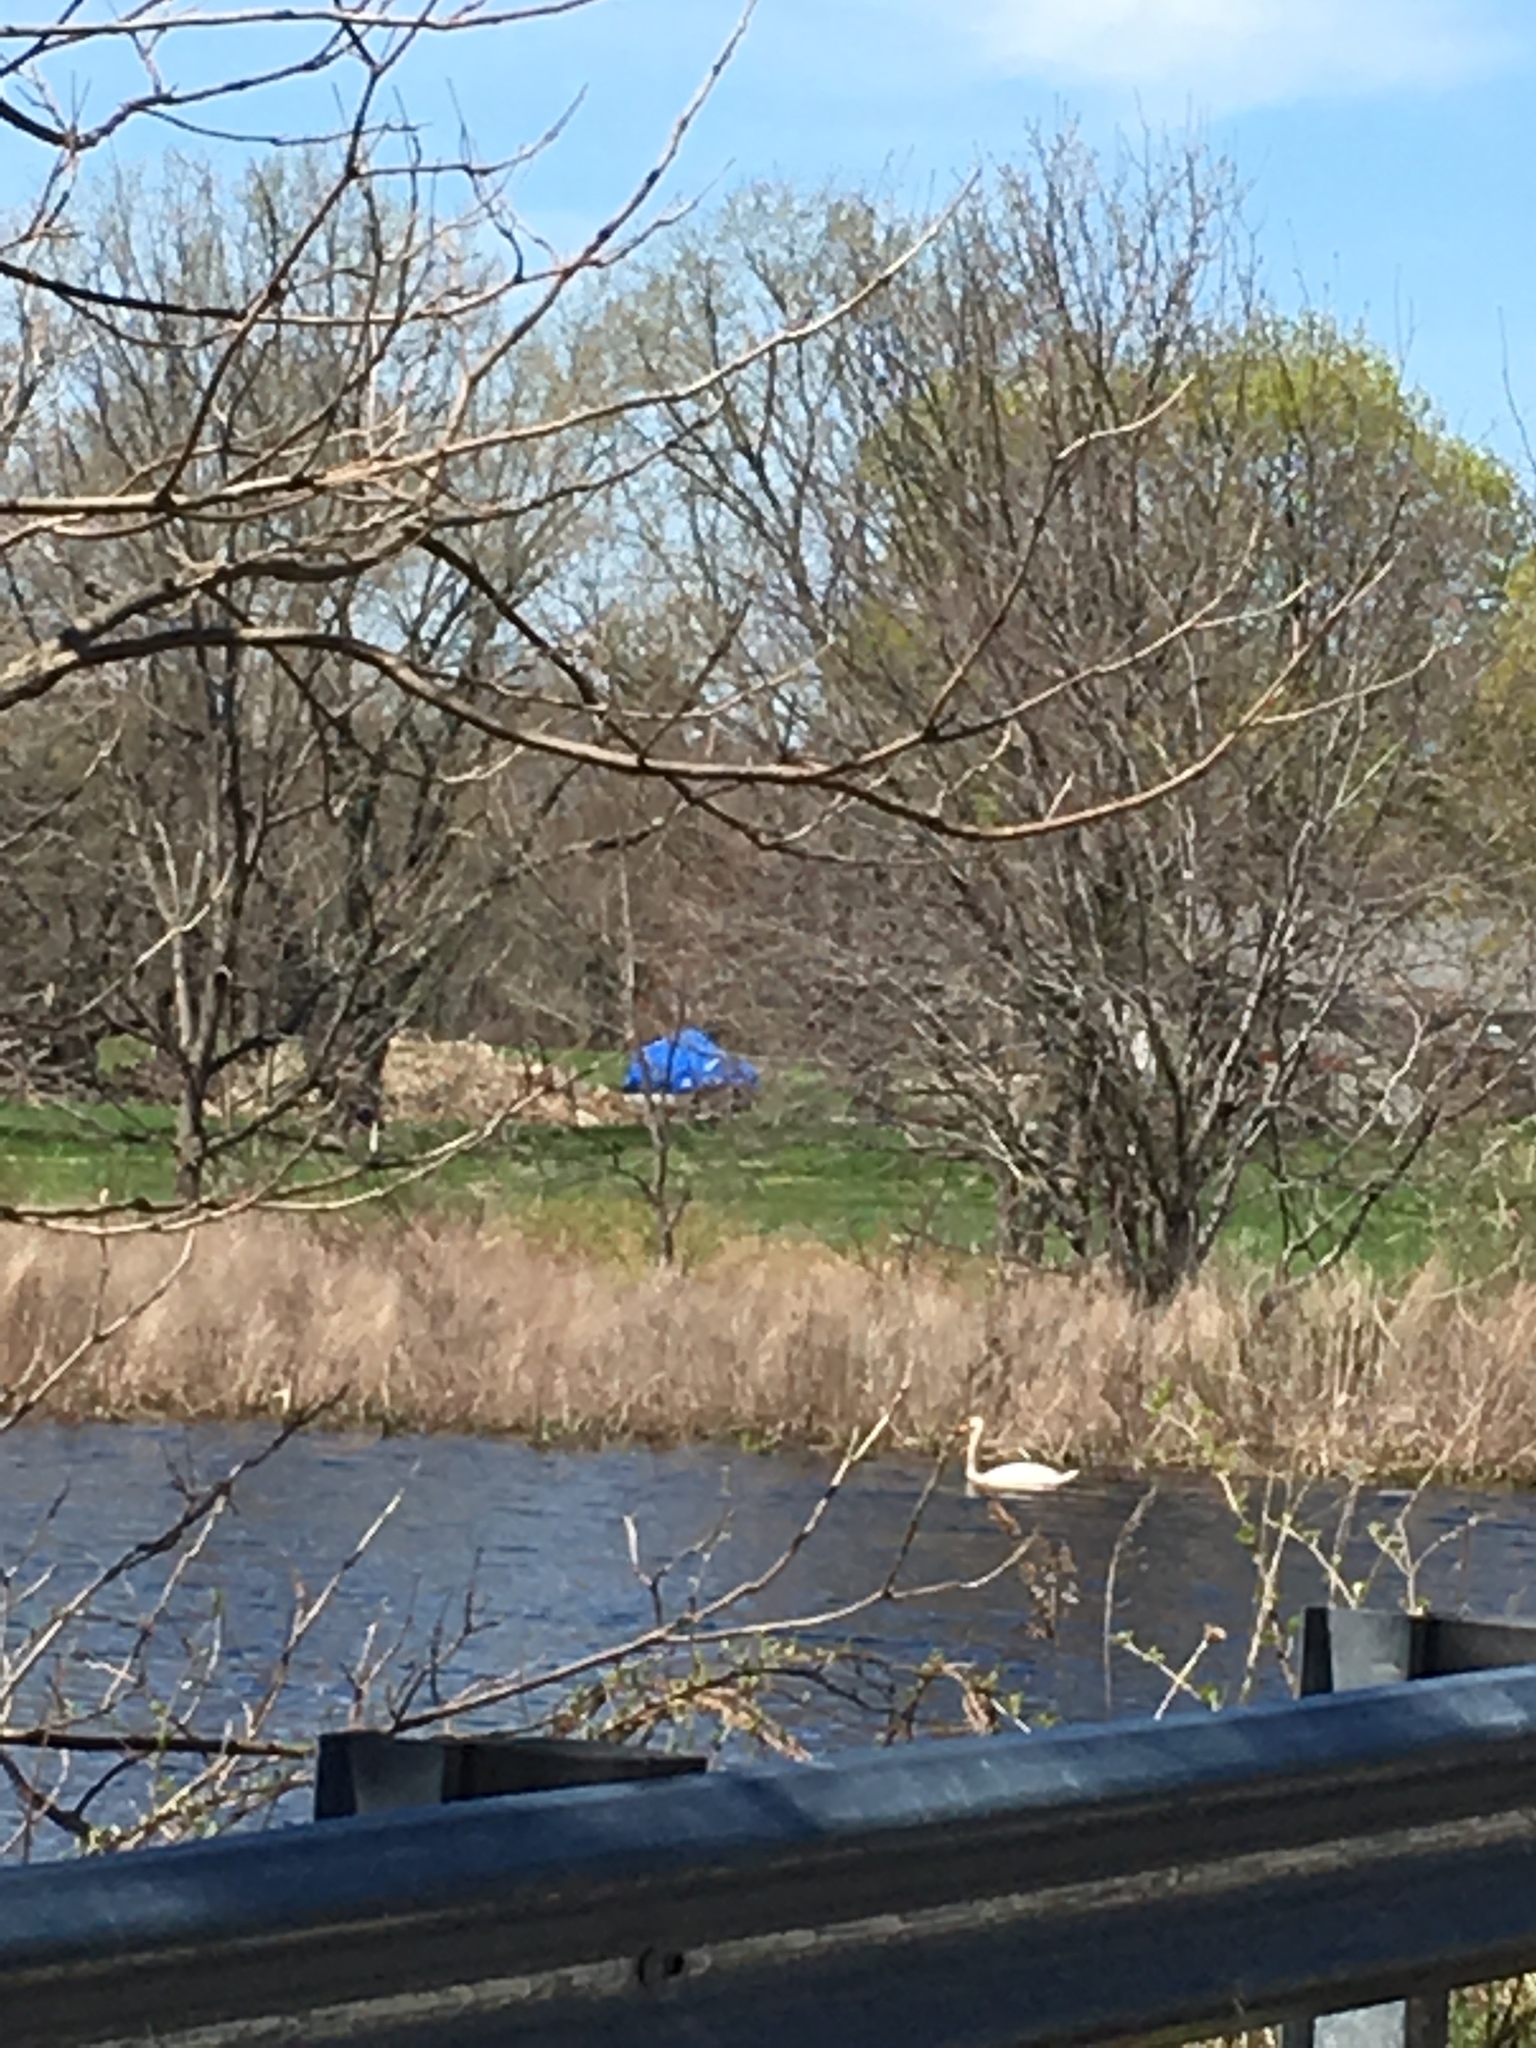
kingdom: Animalia
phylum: Chordata
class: Aves
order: Anseriformes
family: Anatidae
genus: Cygnus
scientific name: Cygnus olor
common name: Mute swan
